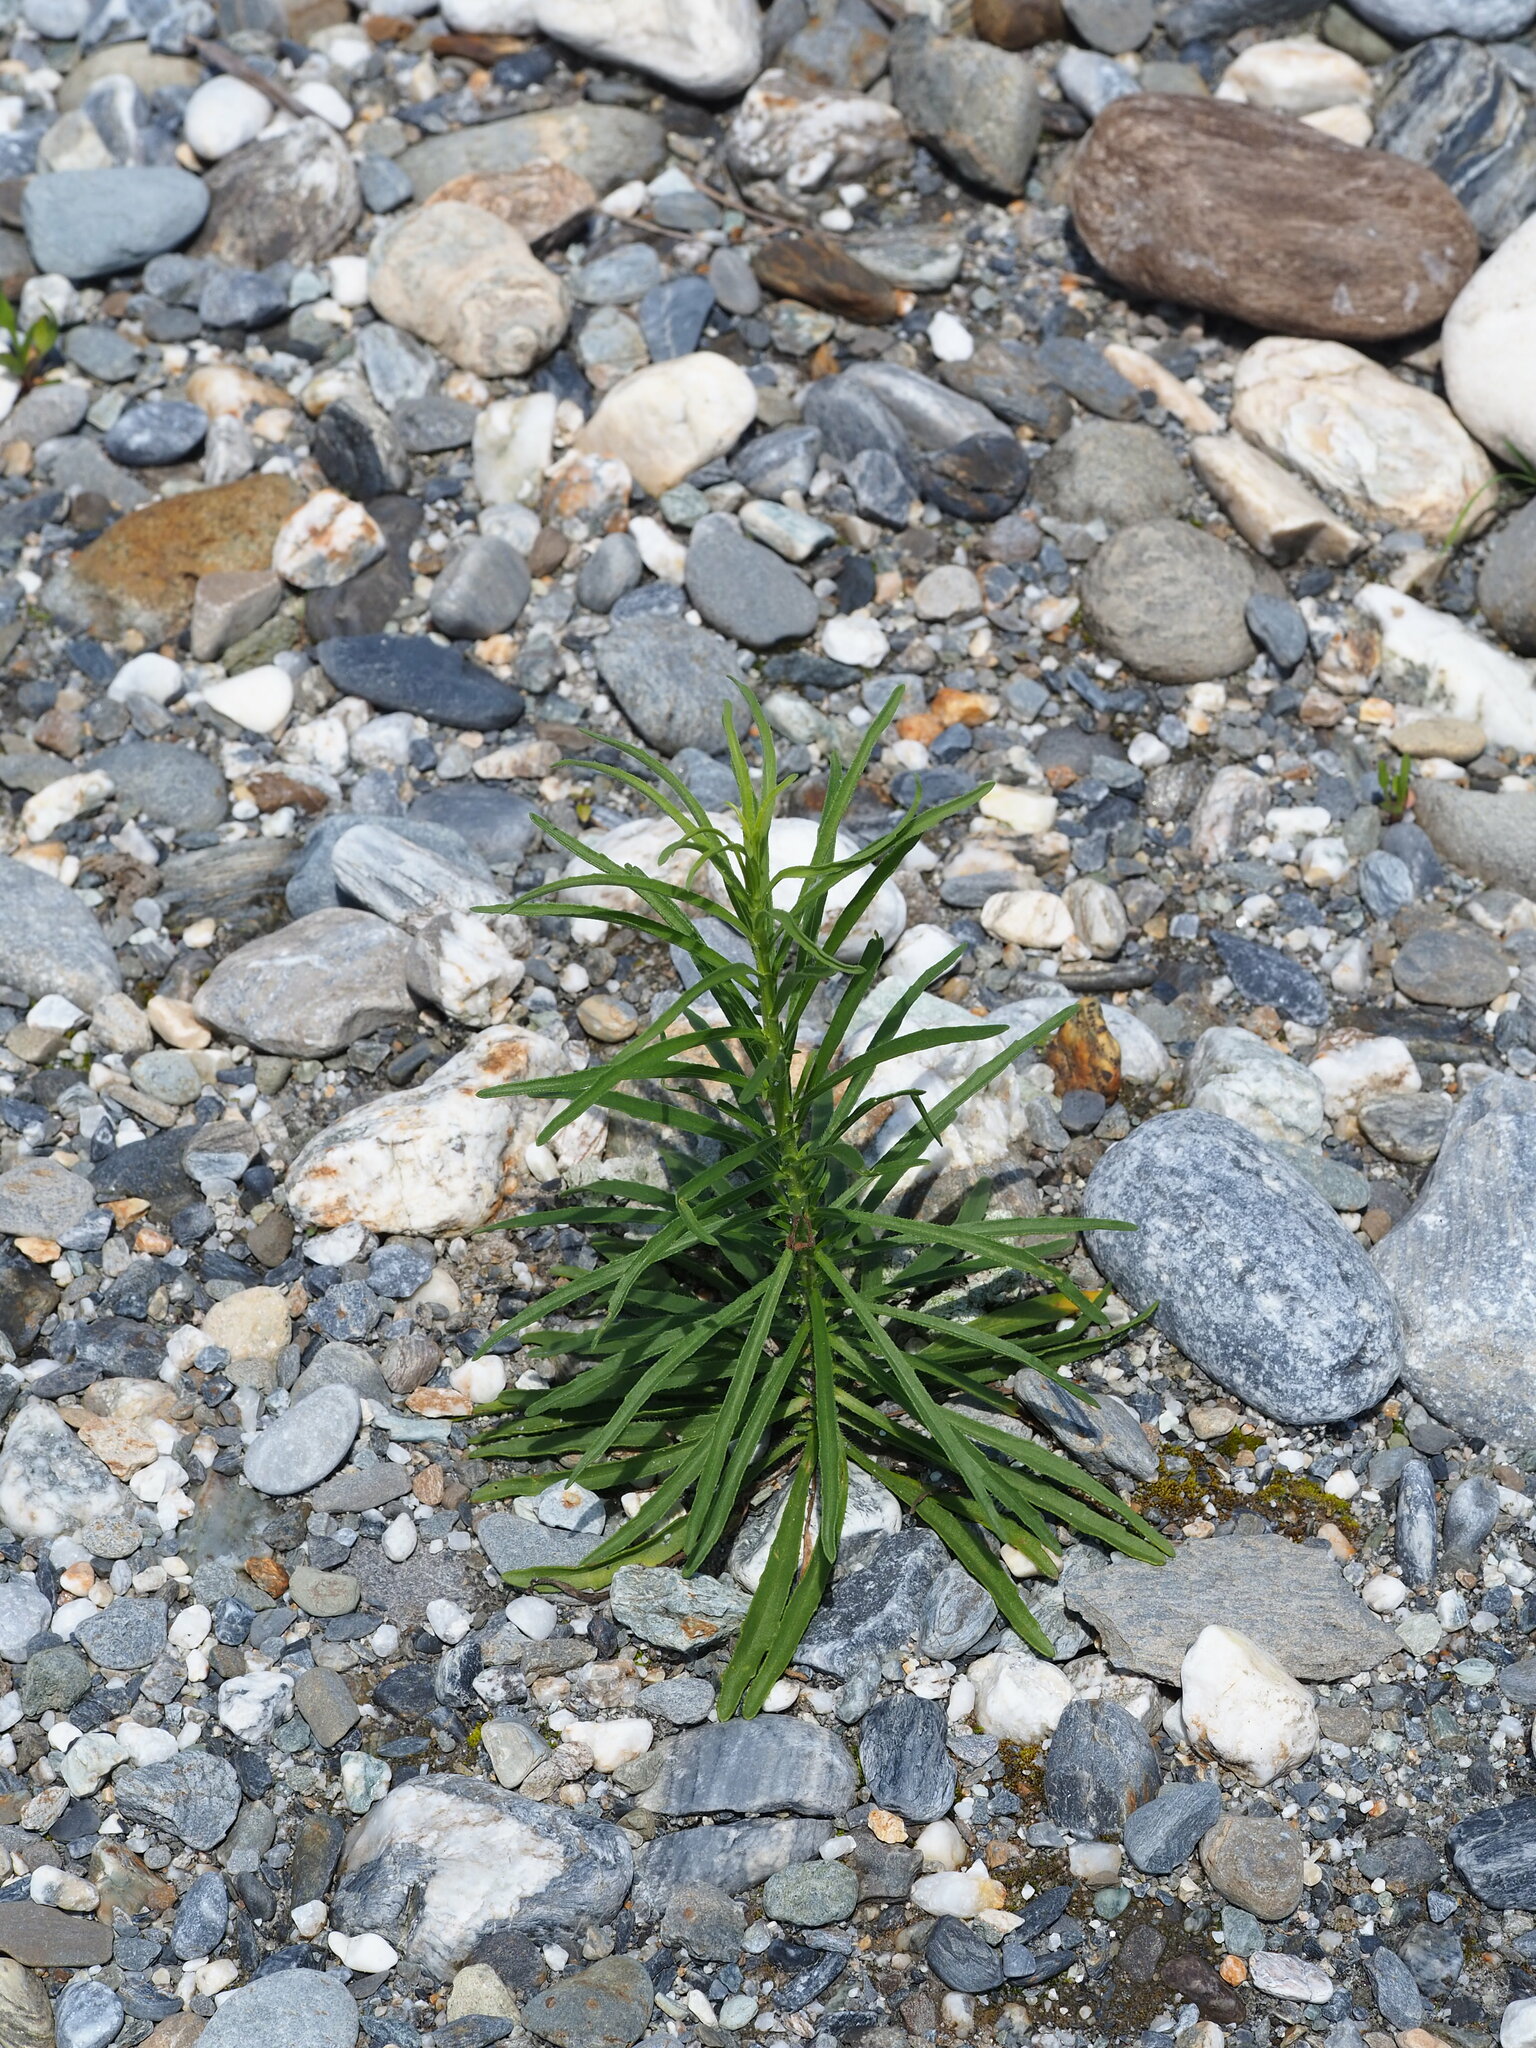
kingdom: Plantae
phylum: Tracheophyta
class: Magnoliopsida
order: Asterales
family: Asteraceae
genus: Heteropappus
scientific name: Heteropappus altaicus
